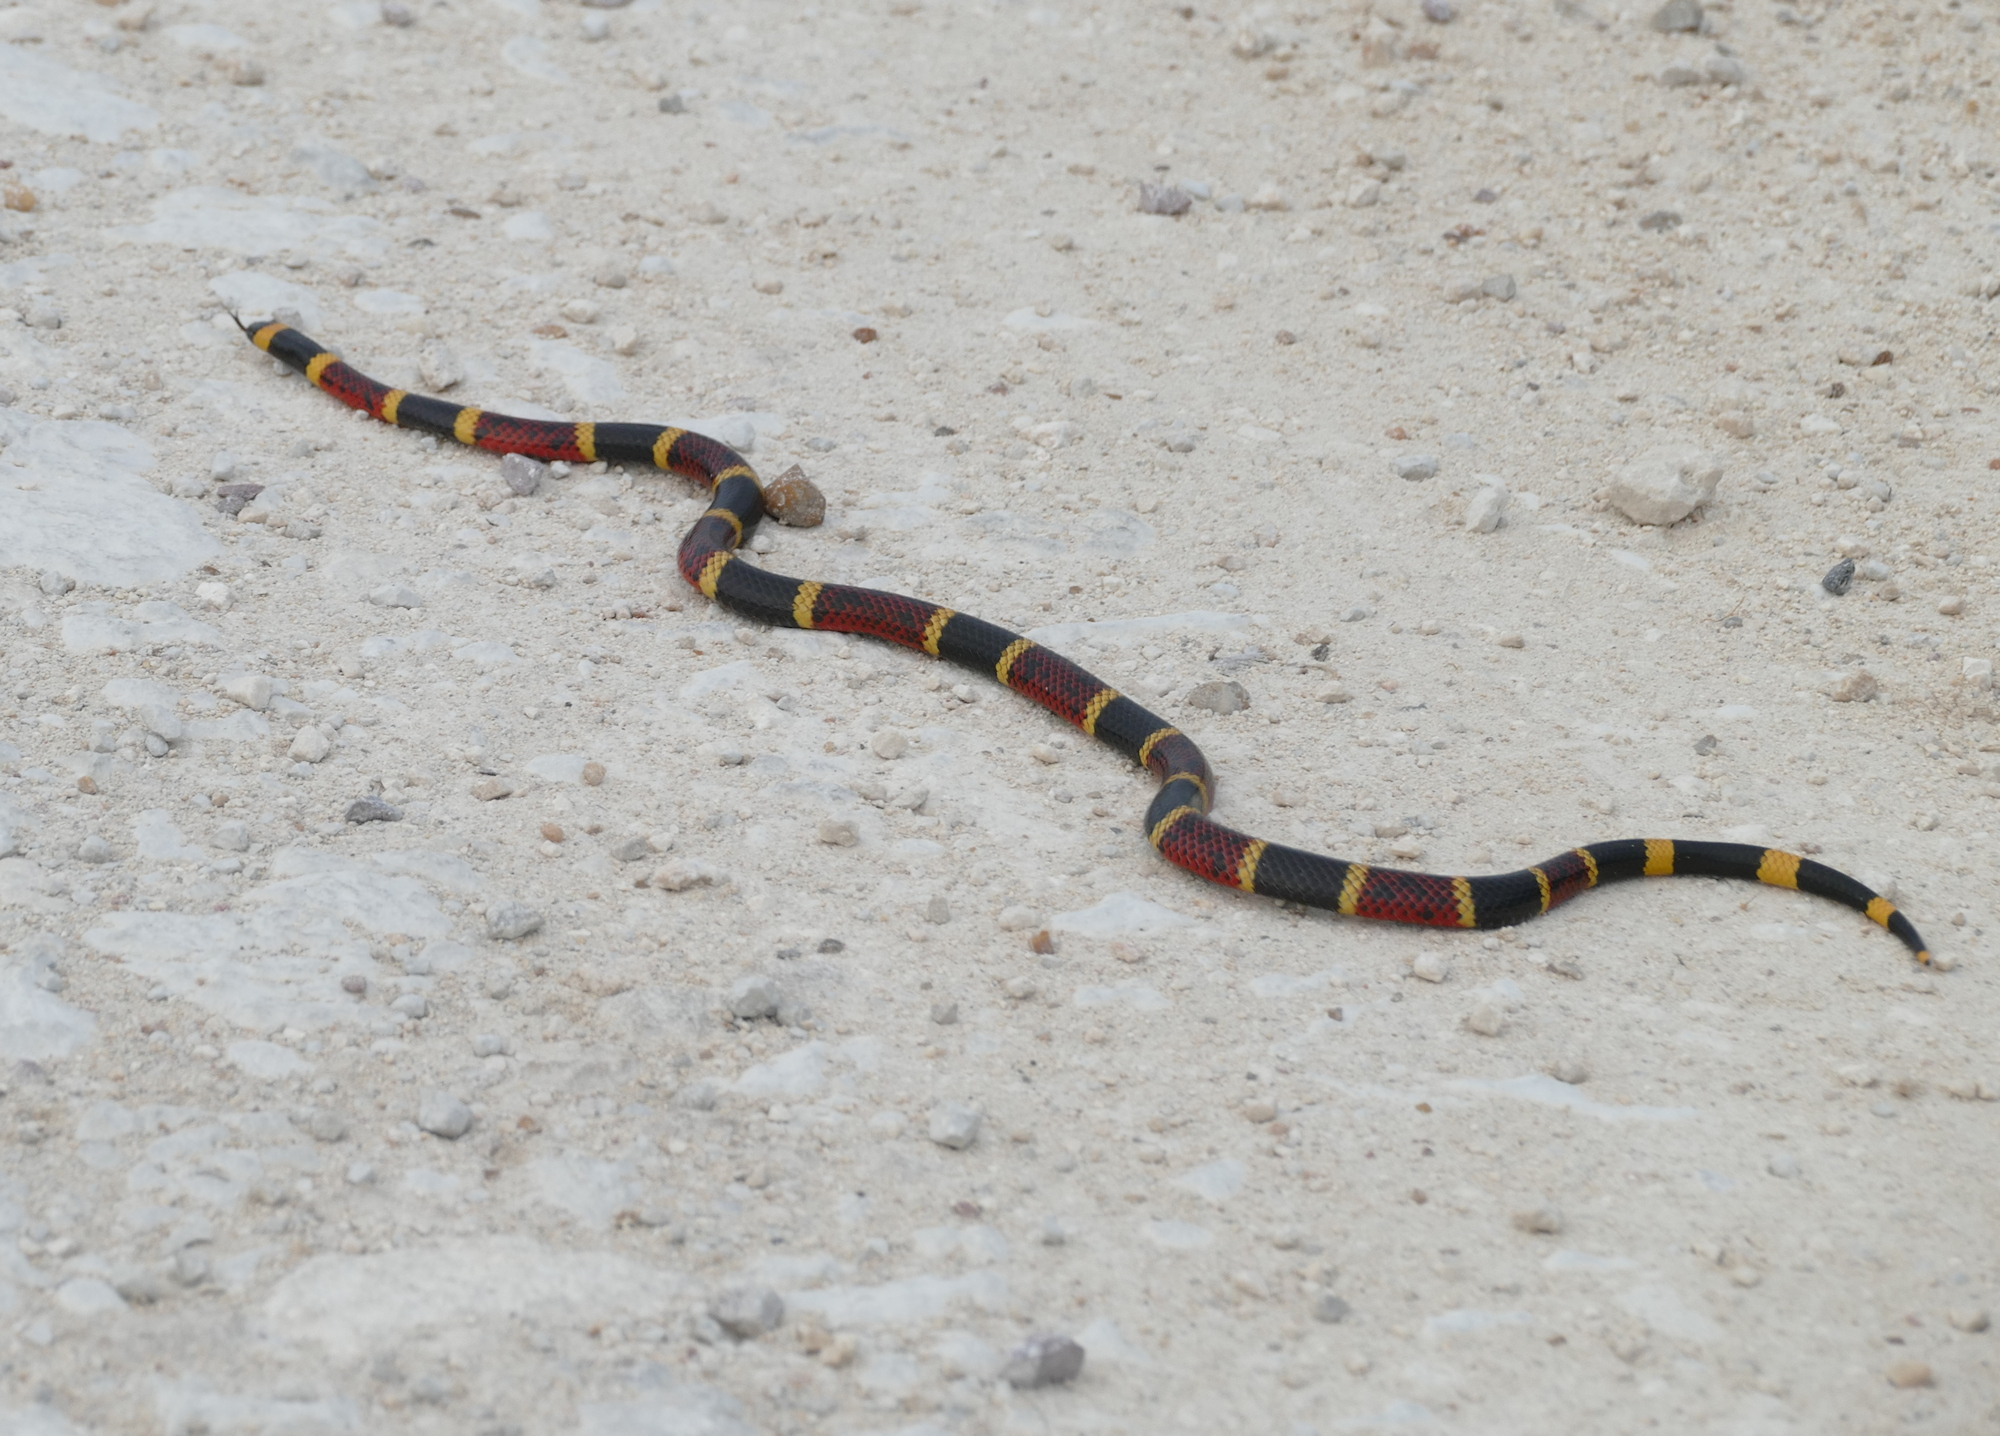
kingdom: Animalia
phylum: Chordata
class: Squamata
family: Elapidae
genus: Micrurus
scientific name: Micrurus tener
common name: Texas coral snake
